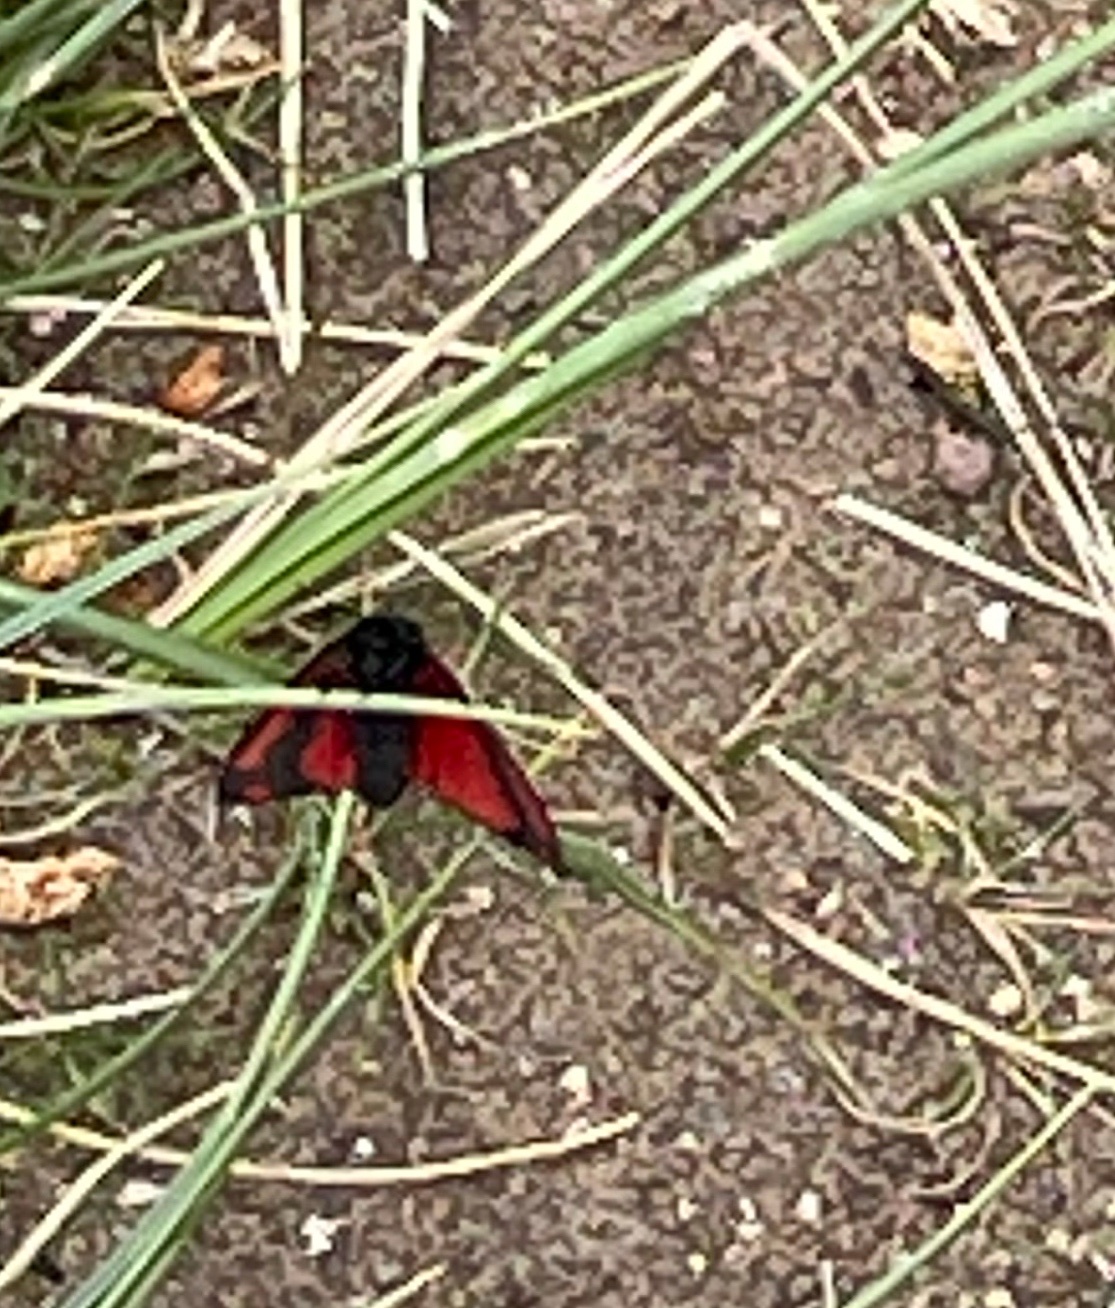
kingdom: Animalia
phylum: Arthropoda
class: Insecta
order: Lepidoptera
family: Erebidae
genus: Tyria
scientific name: Tyria jacobaeae
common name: Cinnabar
